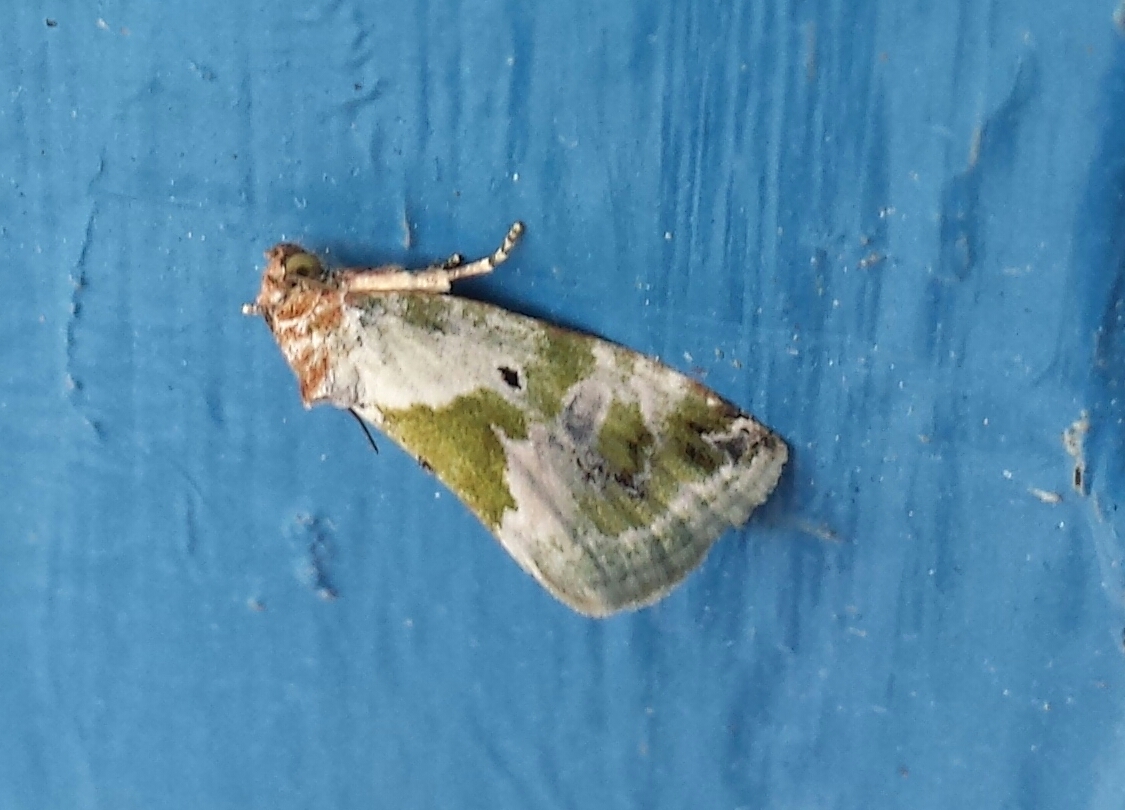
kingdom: Animalia
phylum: Arthropoda
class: Insecta
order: Lepidoptera
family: Noctuidae
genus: Maliattha
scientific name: Maliattha synochitis
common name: Black-dotted glyph
